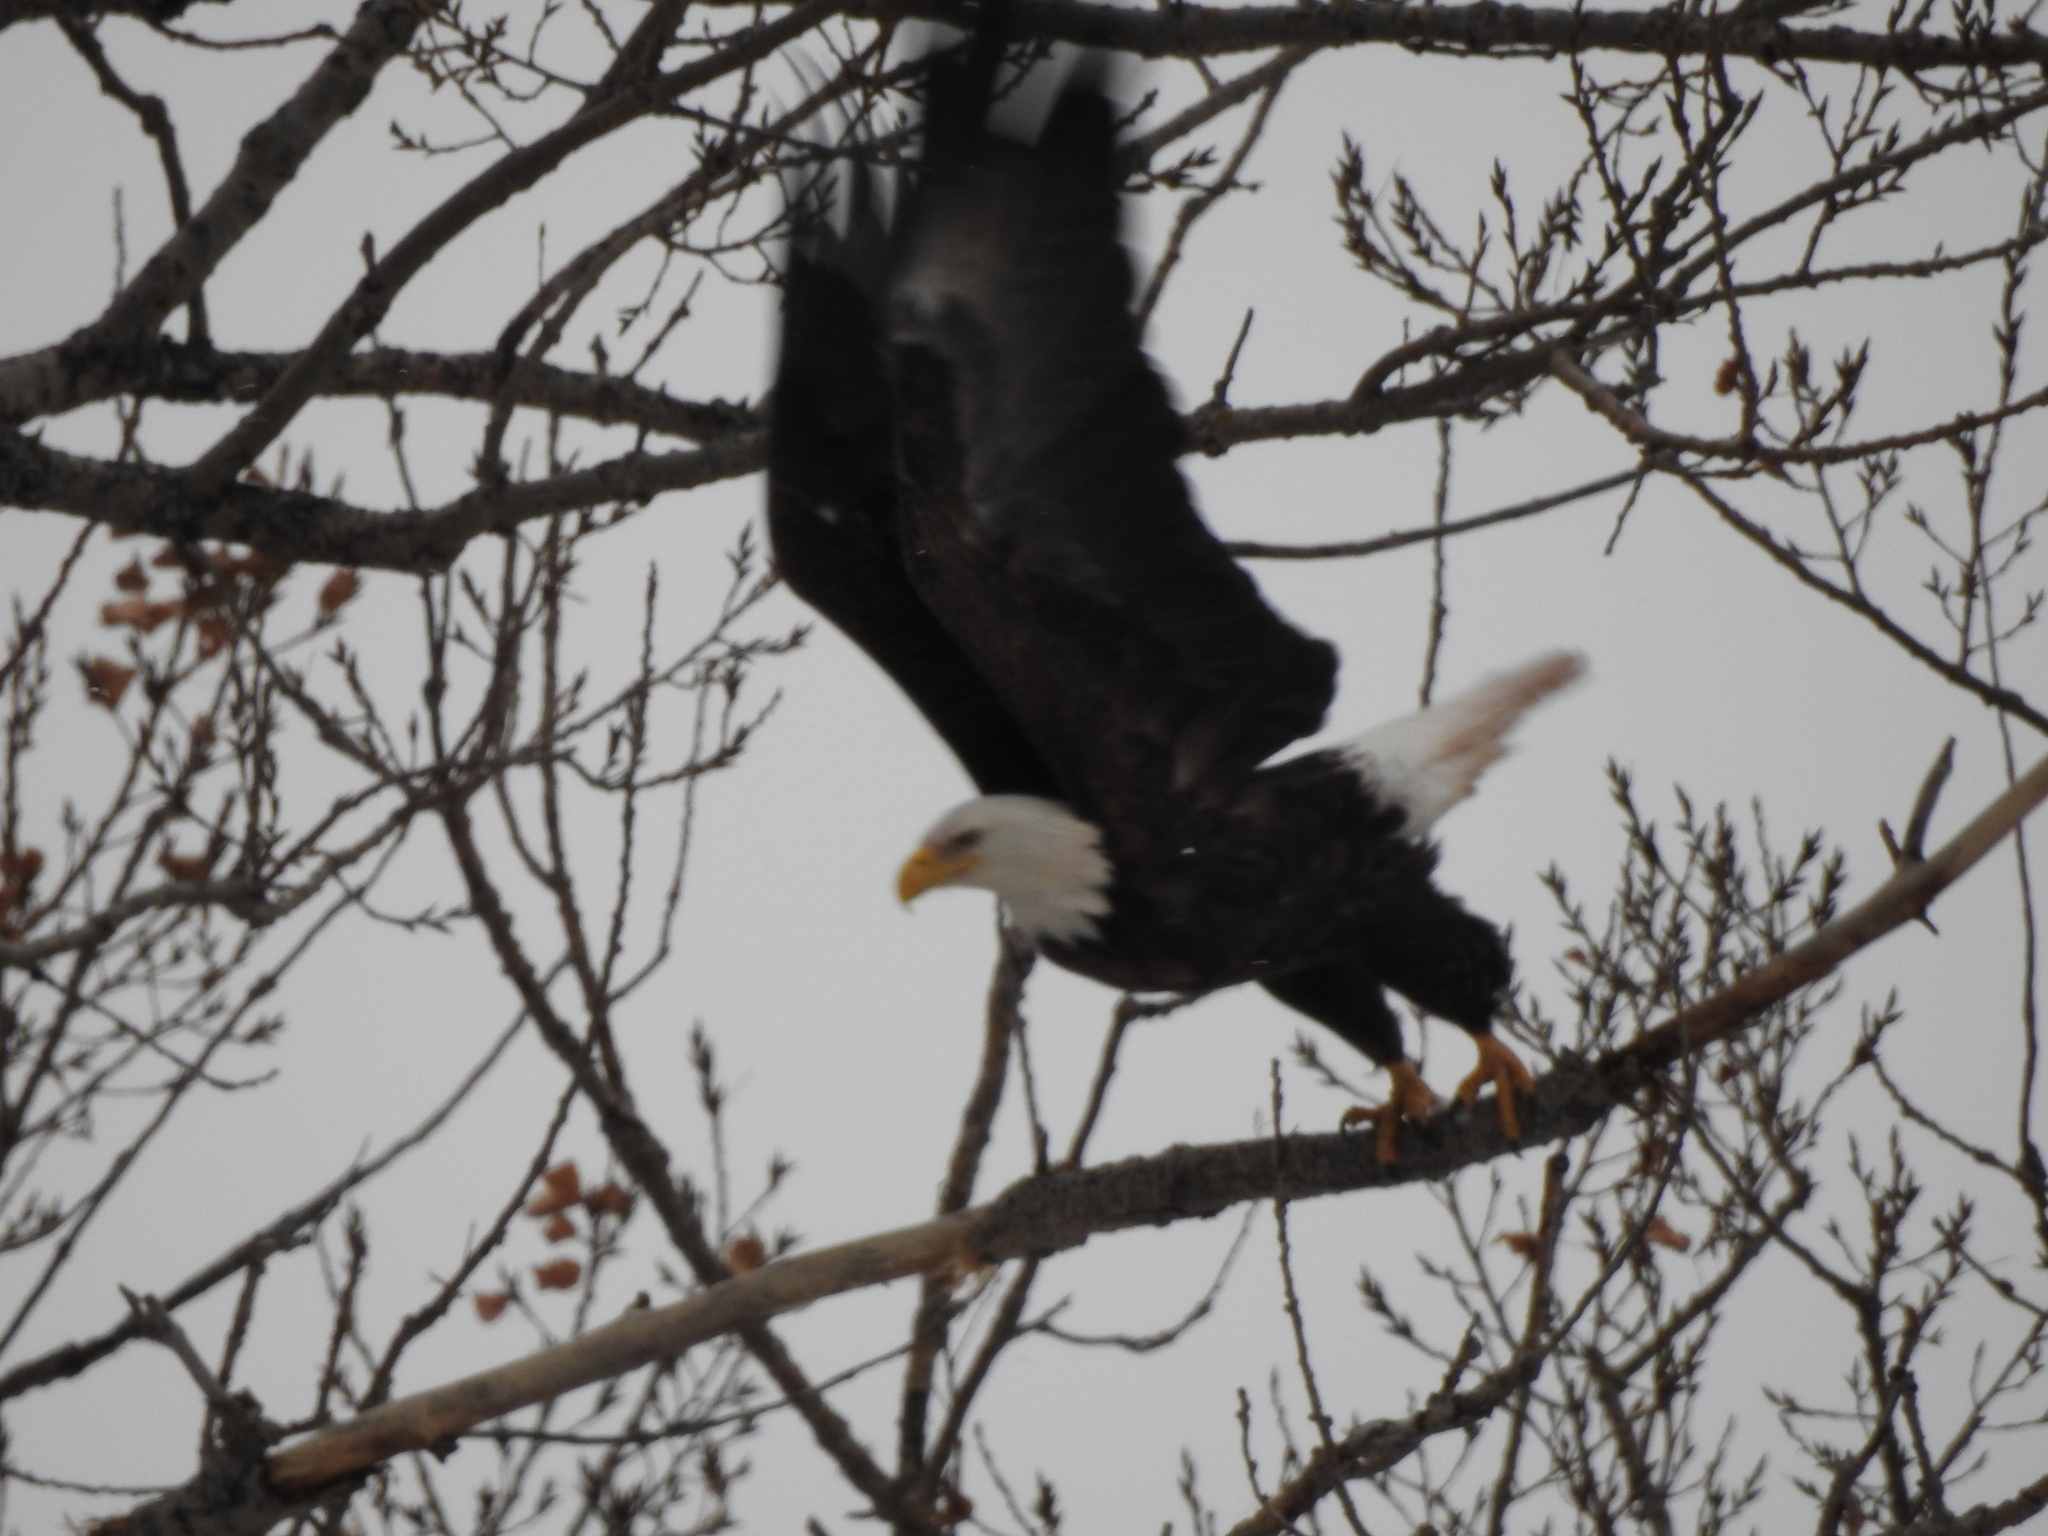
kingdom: Animalia
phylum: Chordata
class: Aves
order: Accipitriformes
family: Accipitridae
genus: Haliaeetus
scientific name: Haliaeetus leucocephalus
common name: Bald eagle
